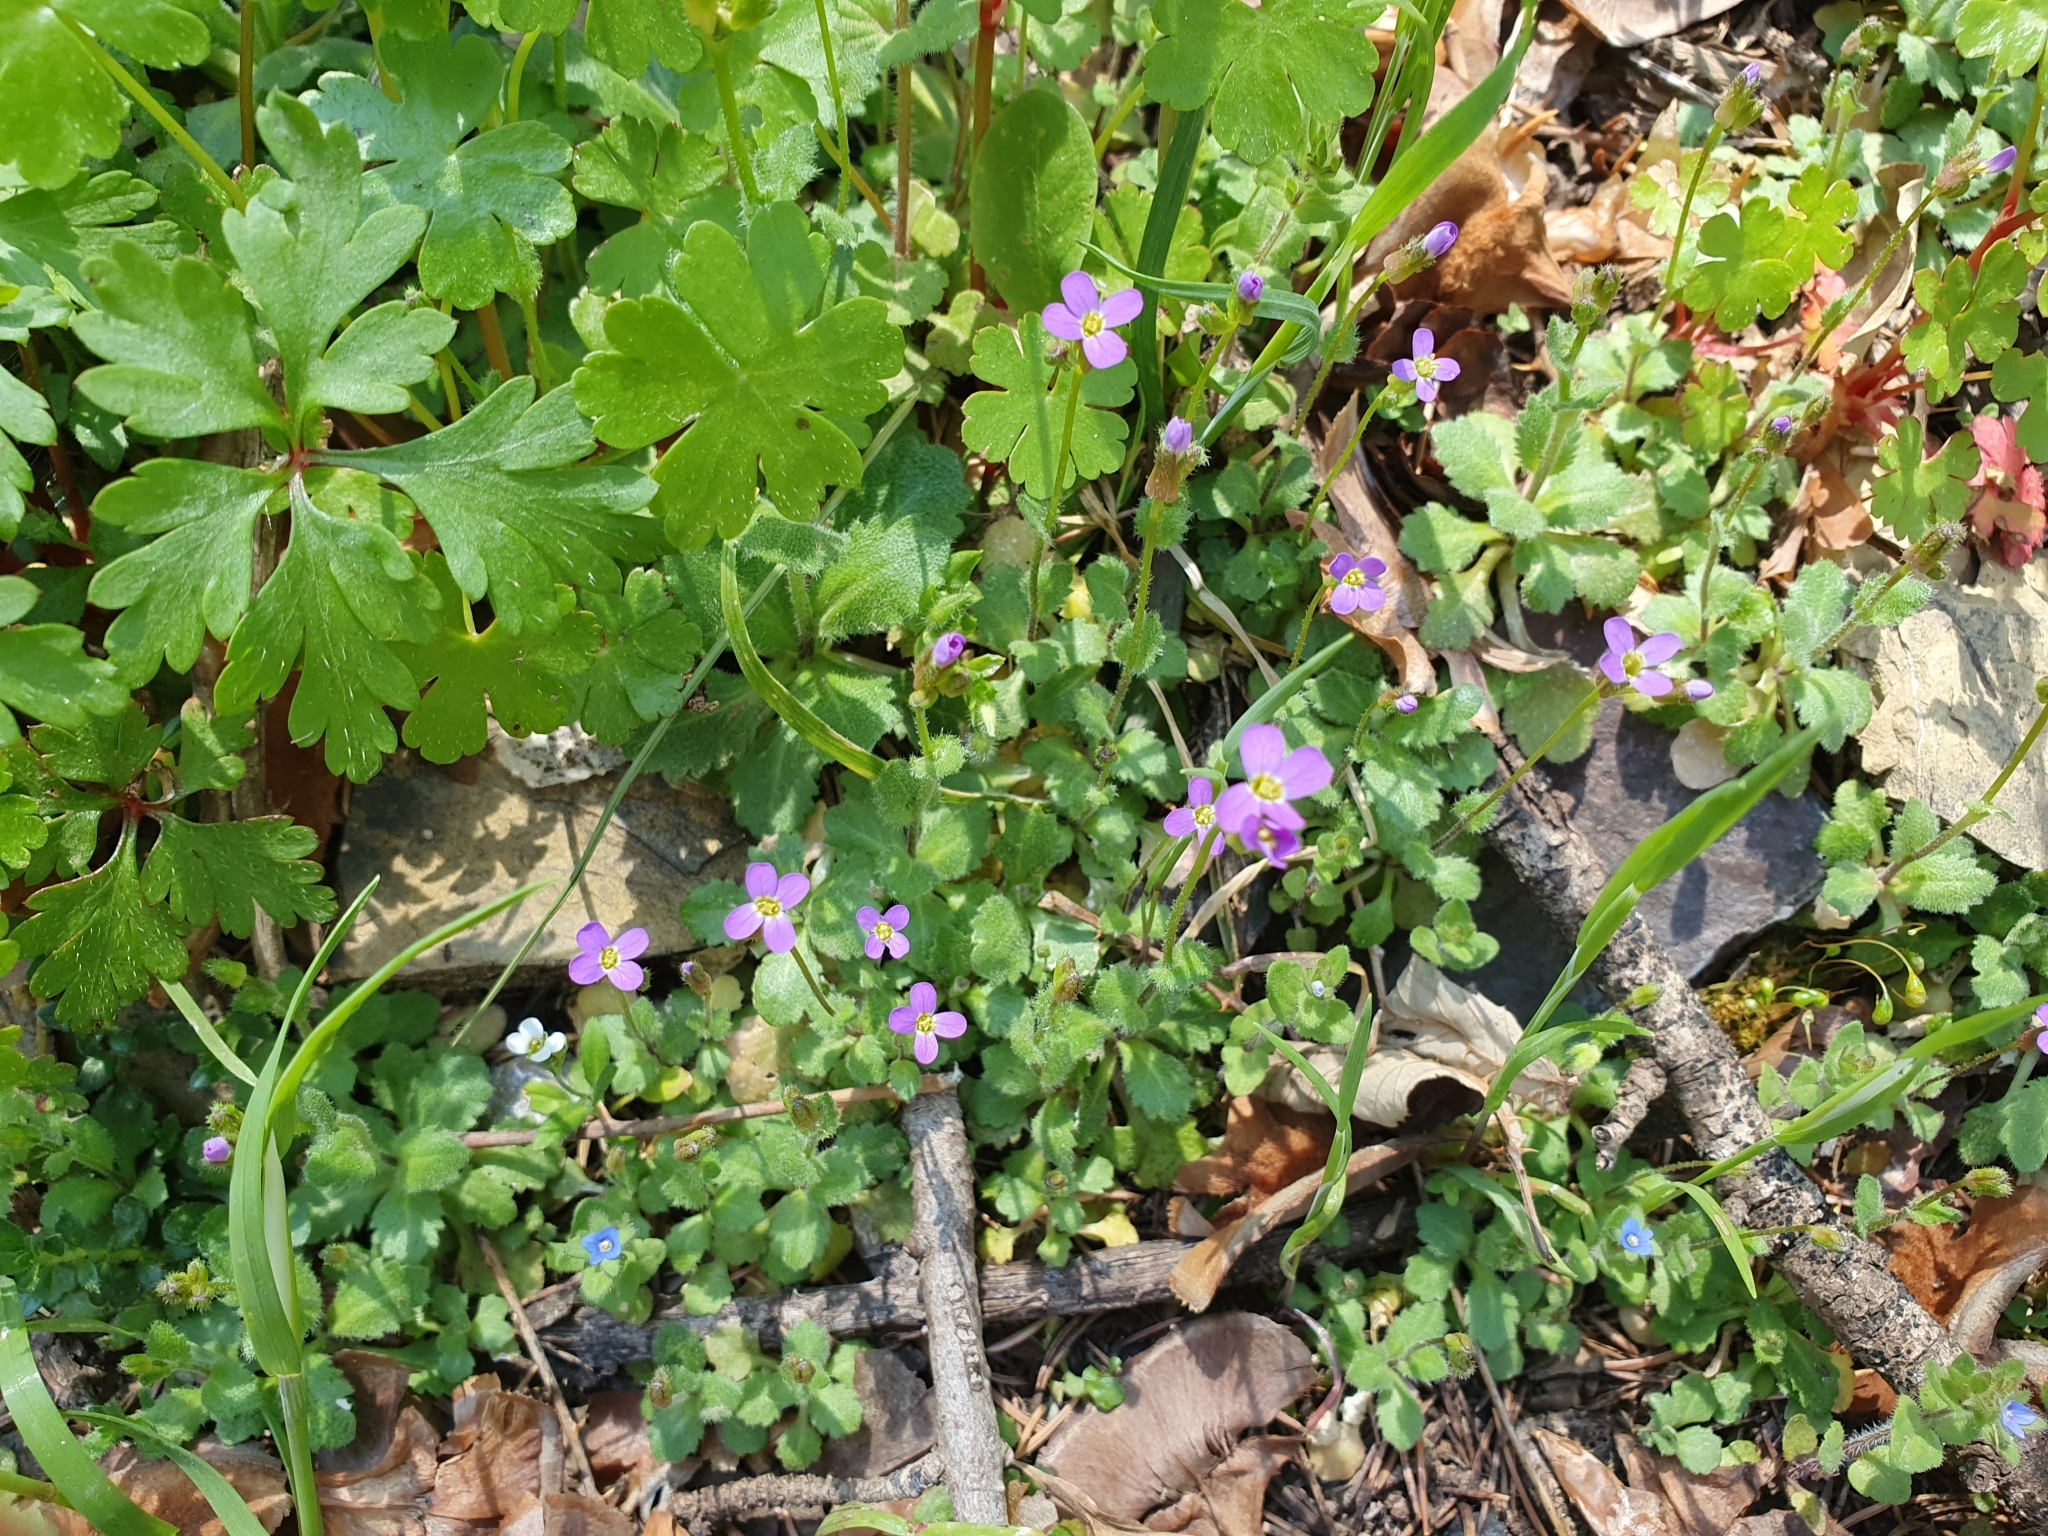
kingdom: Plantae
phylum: Tracheophyta
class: Magnoliopsida
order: Brassicales
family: Brassicaceae
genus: Arabis
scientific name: Arabis verna
